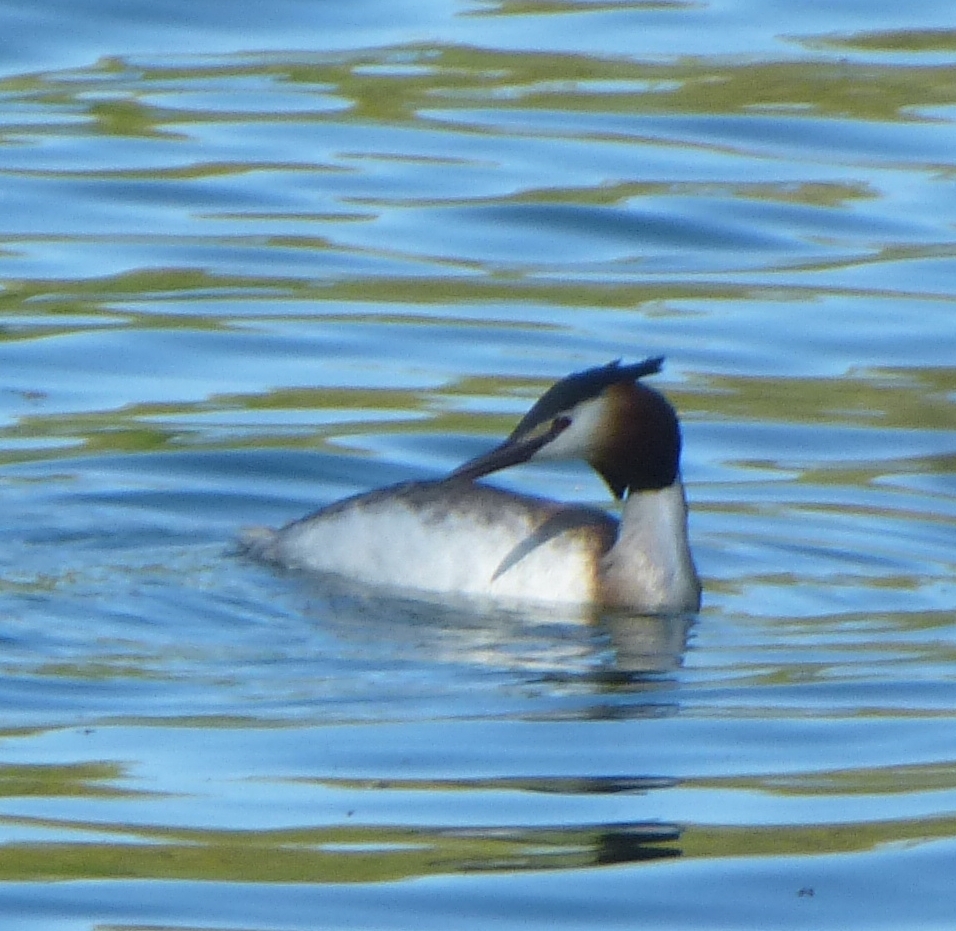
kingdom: Animalia
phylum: Chordata
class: Aves
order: Podicipediformes
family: Podicipedidae
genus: Podiceps
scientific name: Podiceps cristatus
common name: Great crested grebe
